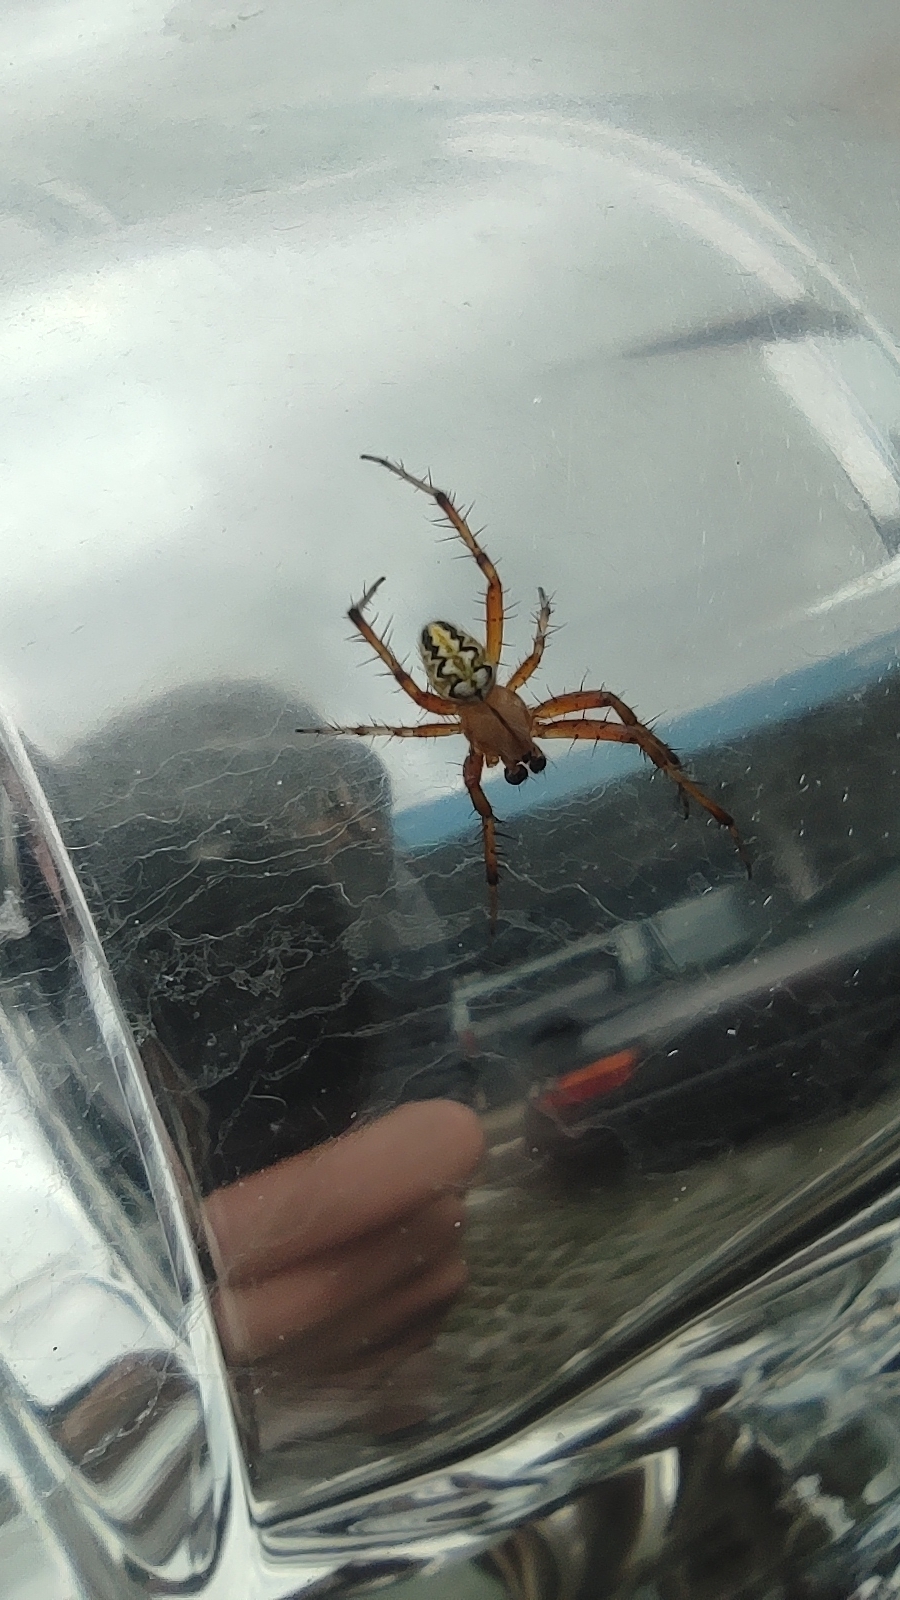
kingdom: Animalia
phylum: Arthropoda
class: Arachnida
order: Araneae
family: Araneidae
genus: Neoscona
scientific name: Neoscona adianta
